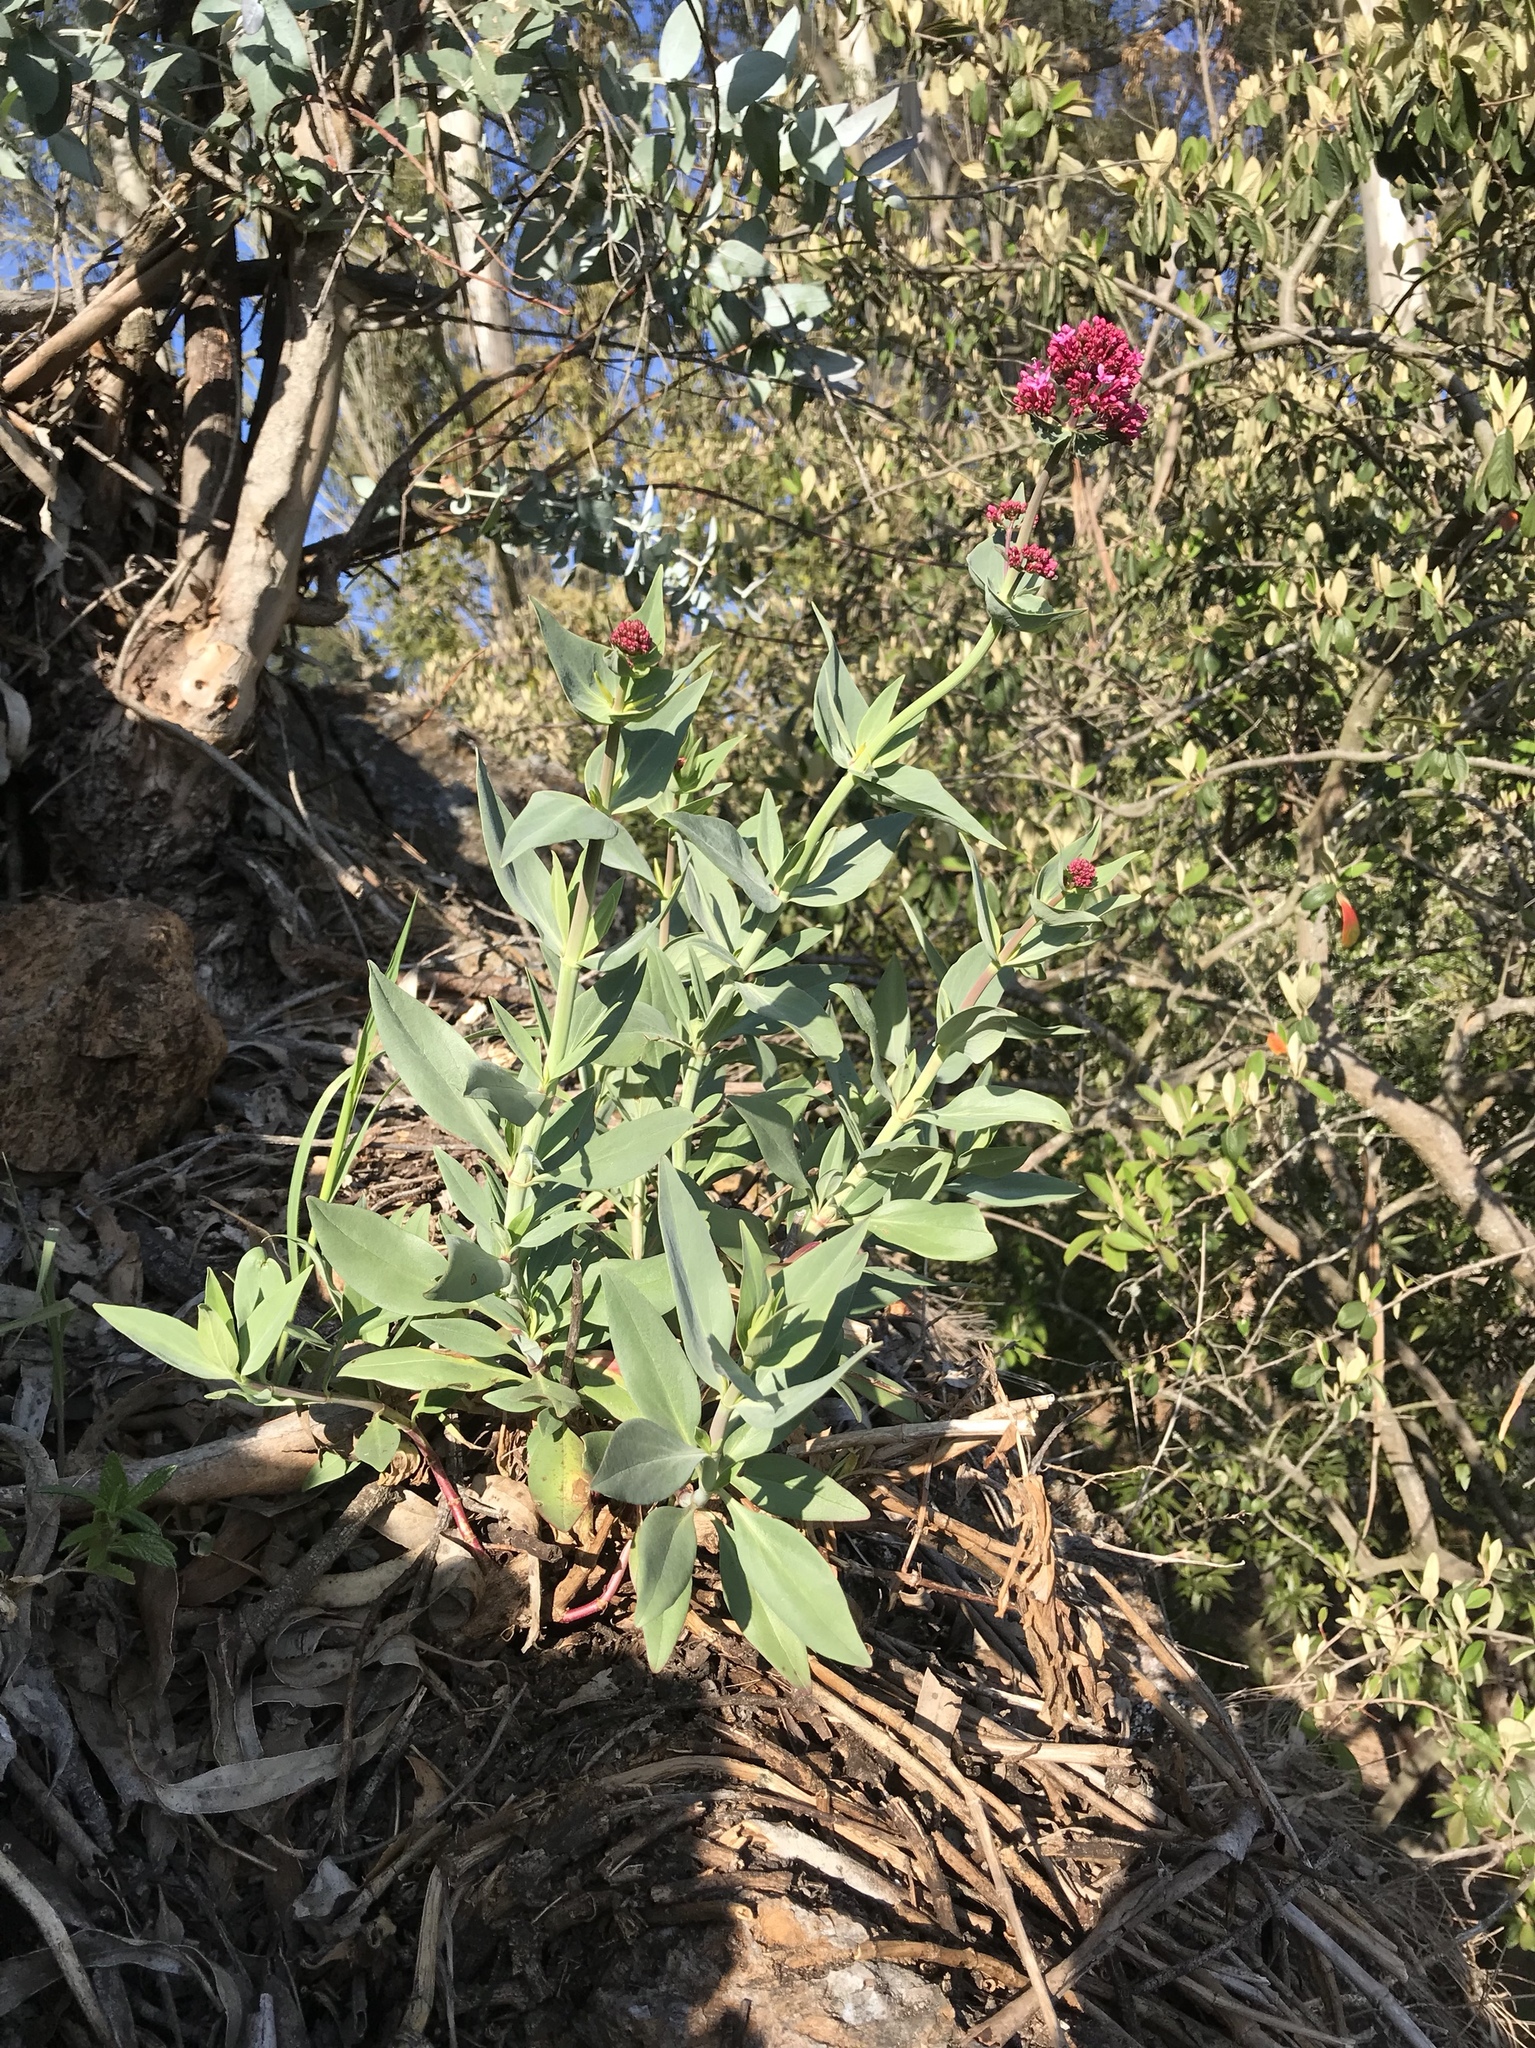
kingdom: Plantae
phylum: Tracheophyta
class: Magnoliopsida
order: Dipsacales
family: Caprifoliaceae
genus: Centranthus
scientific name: Centranthus ruber
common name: Red valerian
